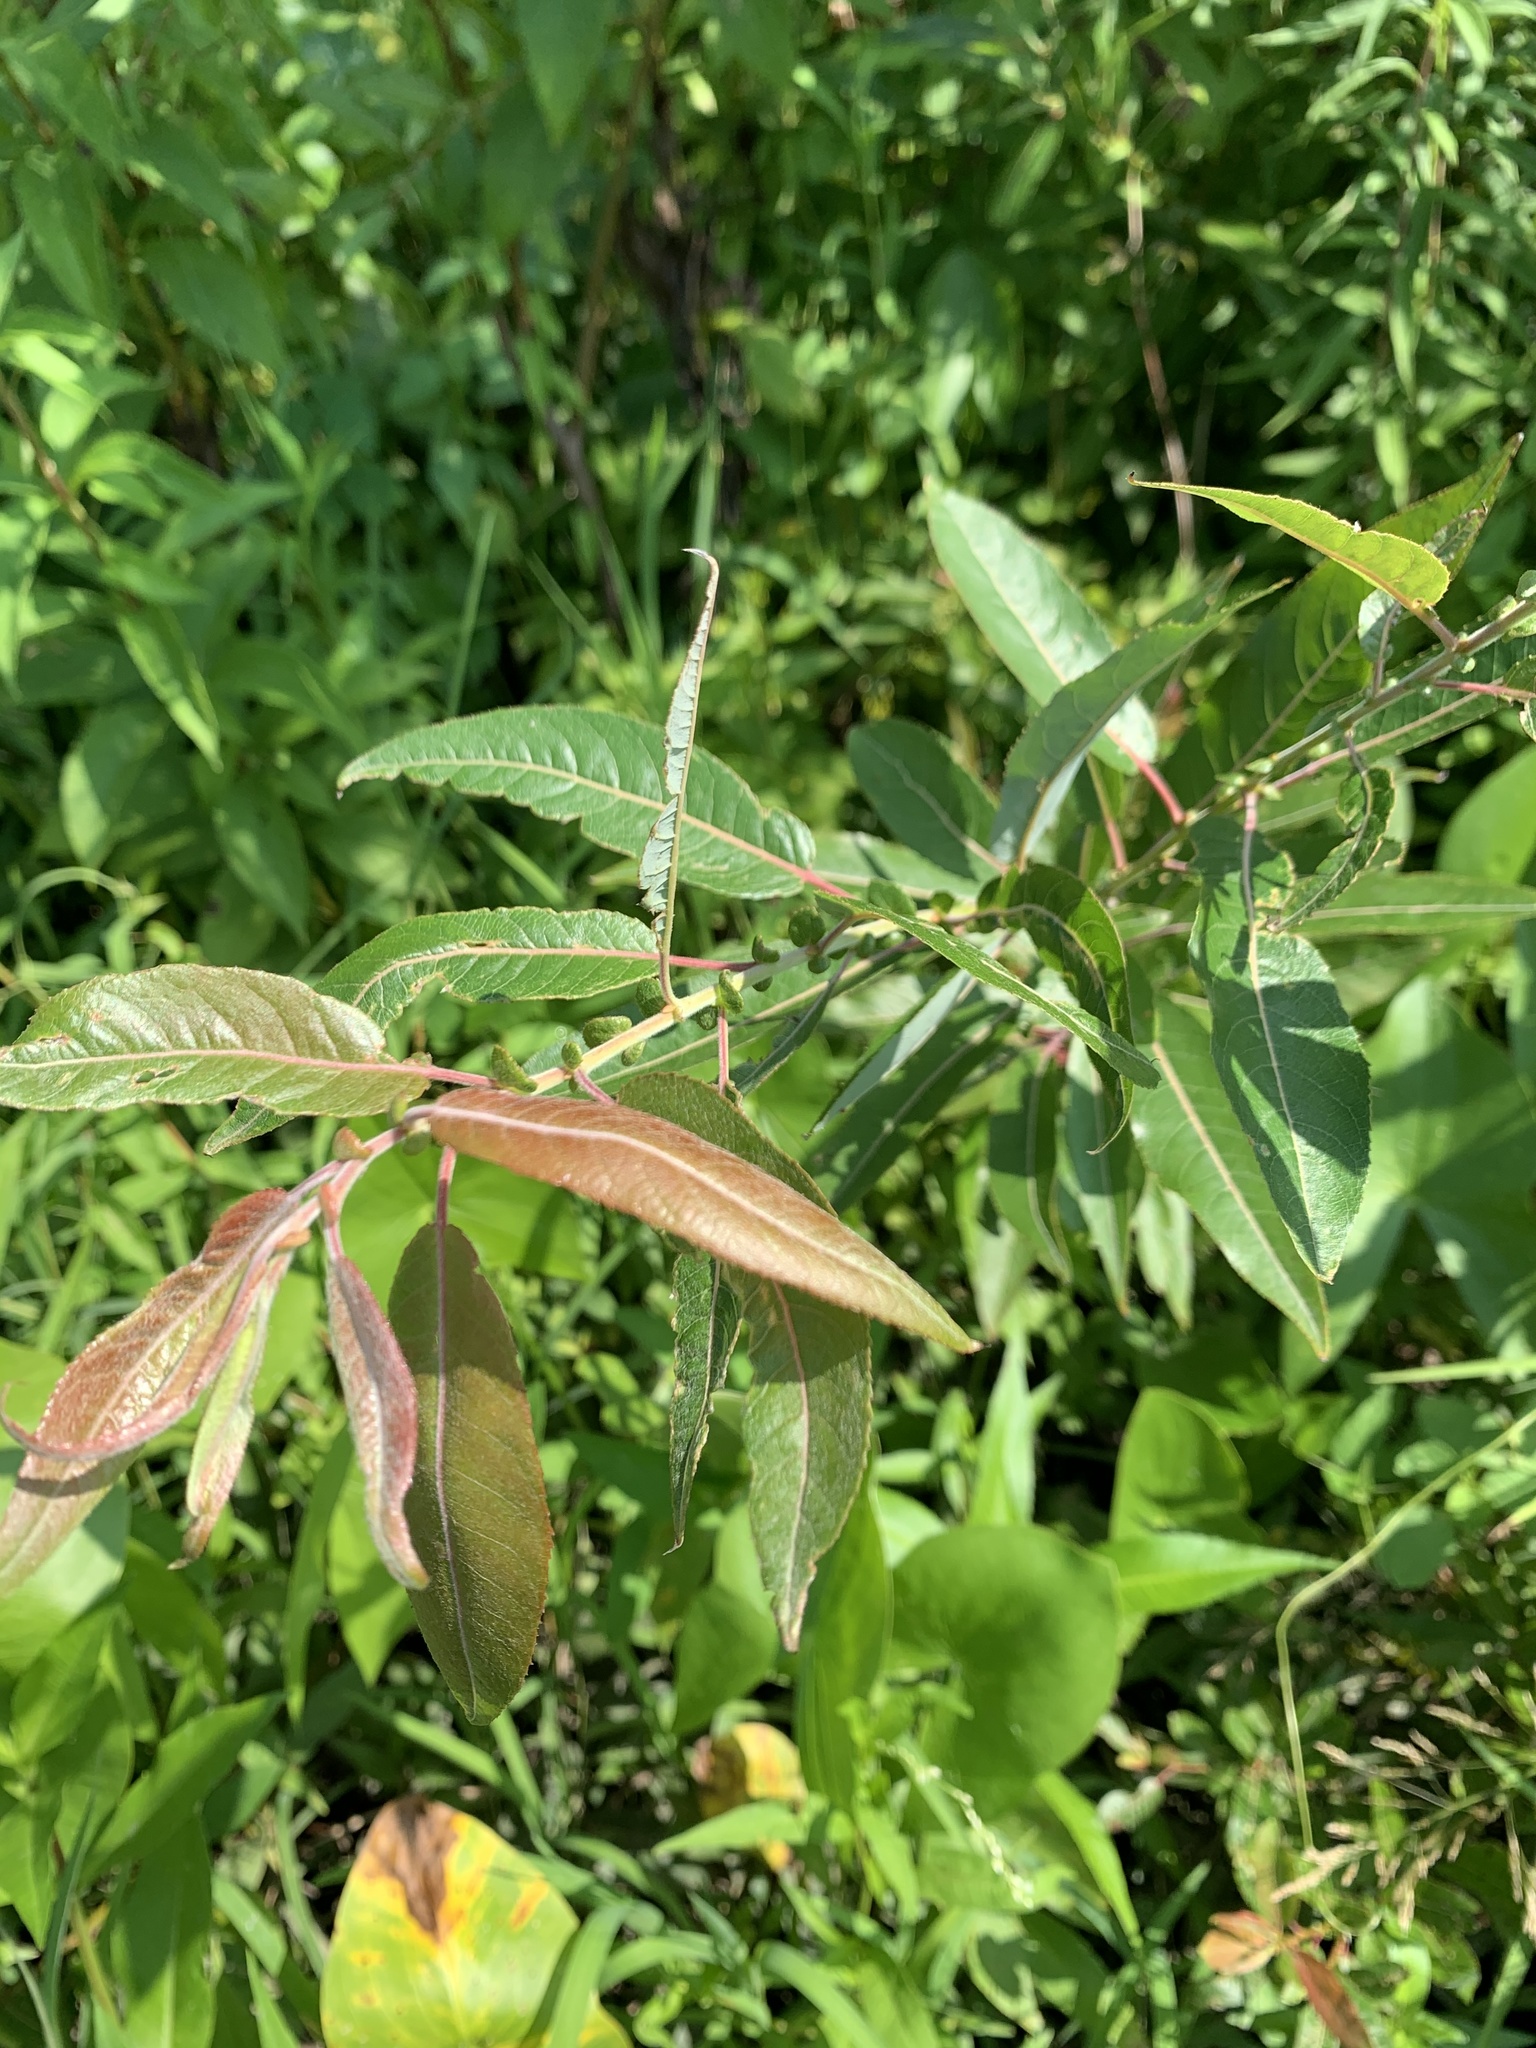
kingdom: Plantae
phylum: Tracheophyta
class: Magnoliopsida
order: Malpighiales
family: Salicaceae
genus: Salix
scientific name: Salix eriocephala
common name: Heart-leaved willow
